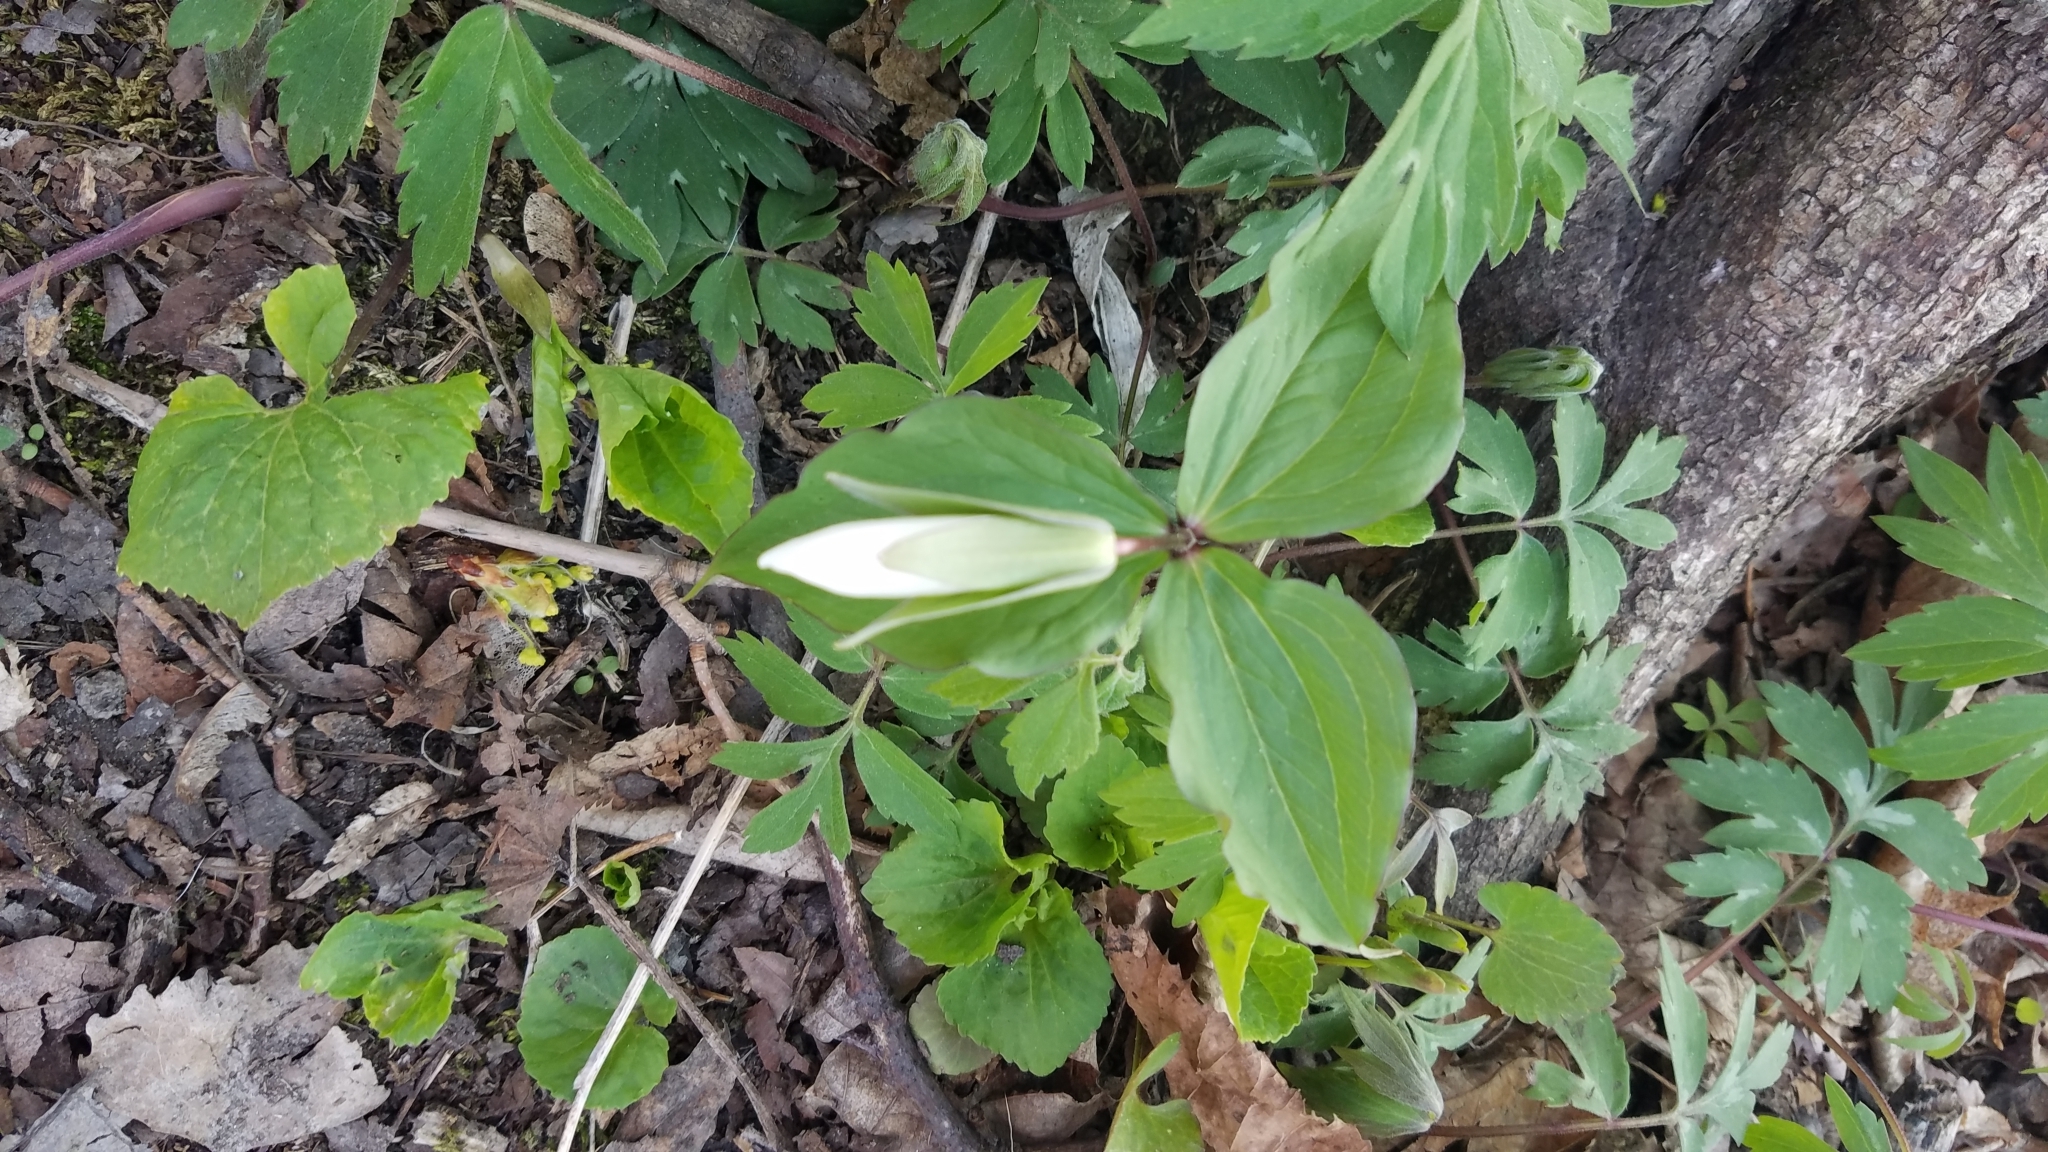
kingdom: Plantae
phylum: Tracheophyta
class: Liliopsida
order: Liliales
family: Melanthiaceae
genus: Trillium
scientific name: Trillium grandiflorum
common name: Great white trillium
